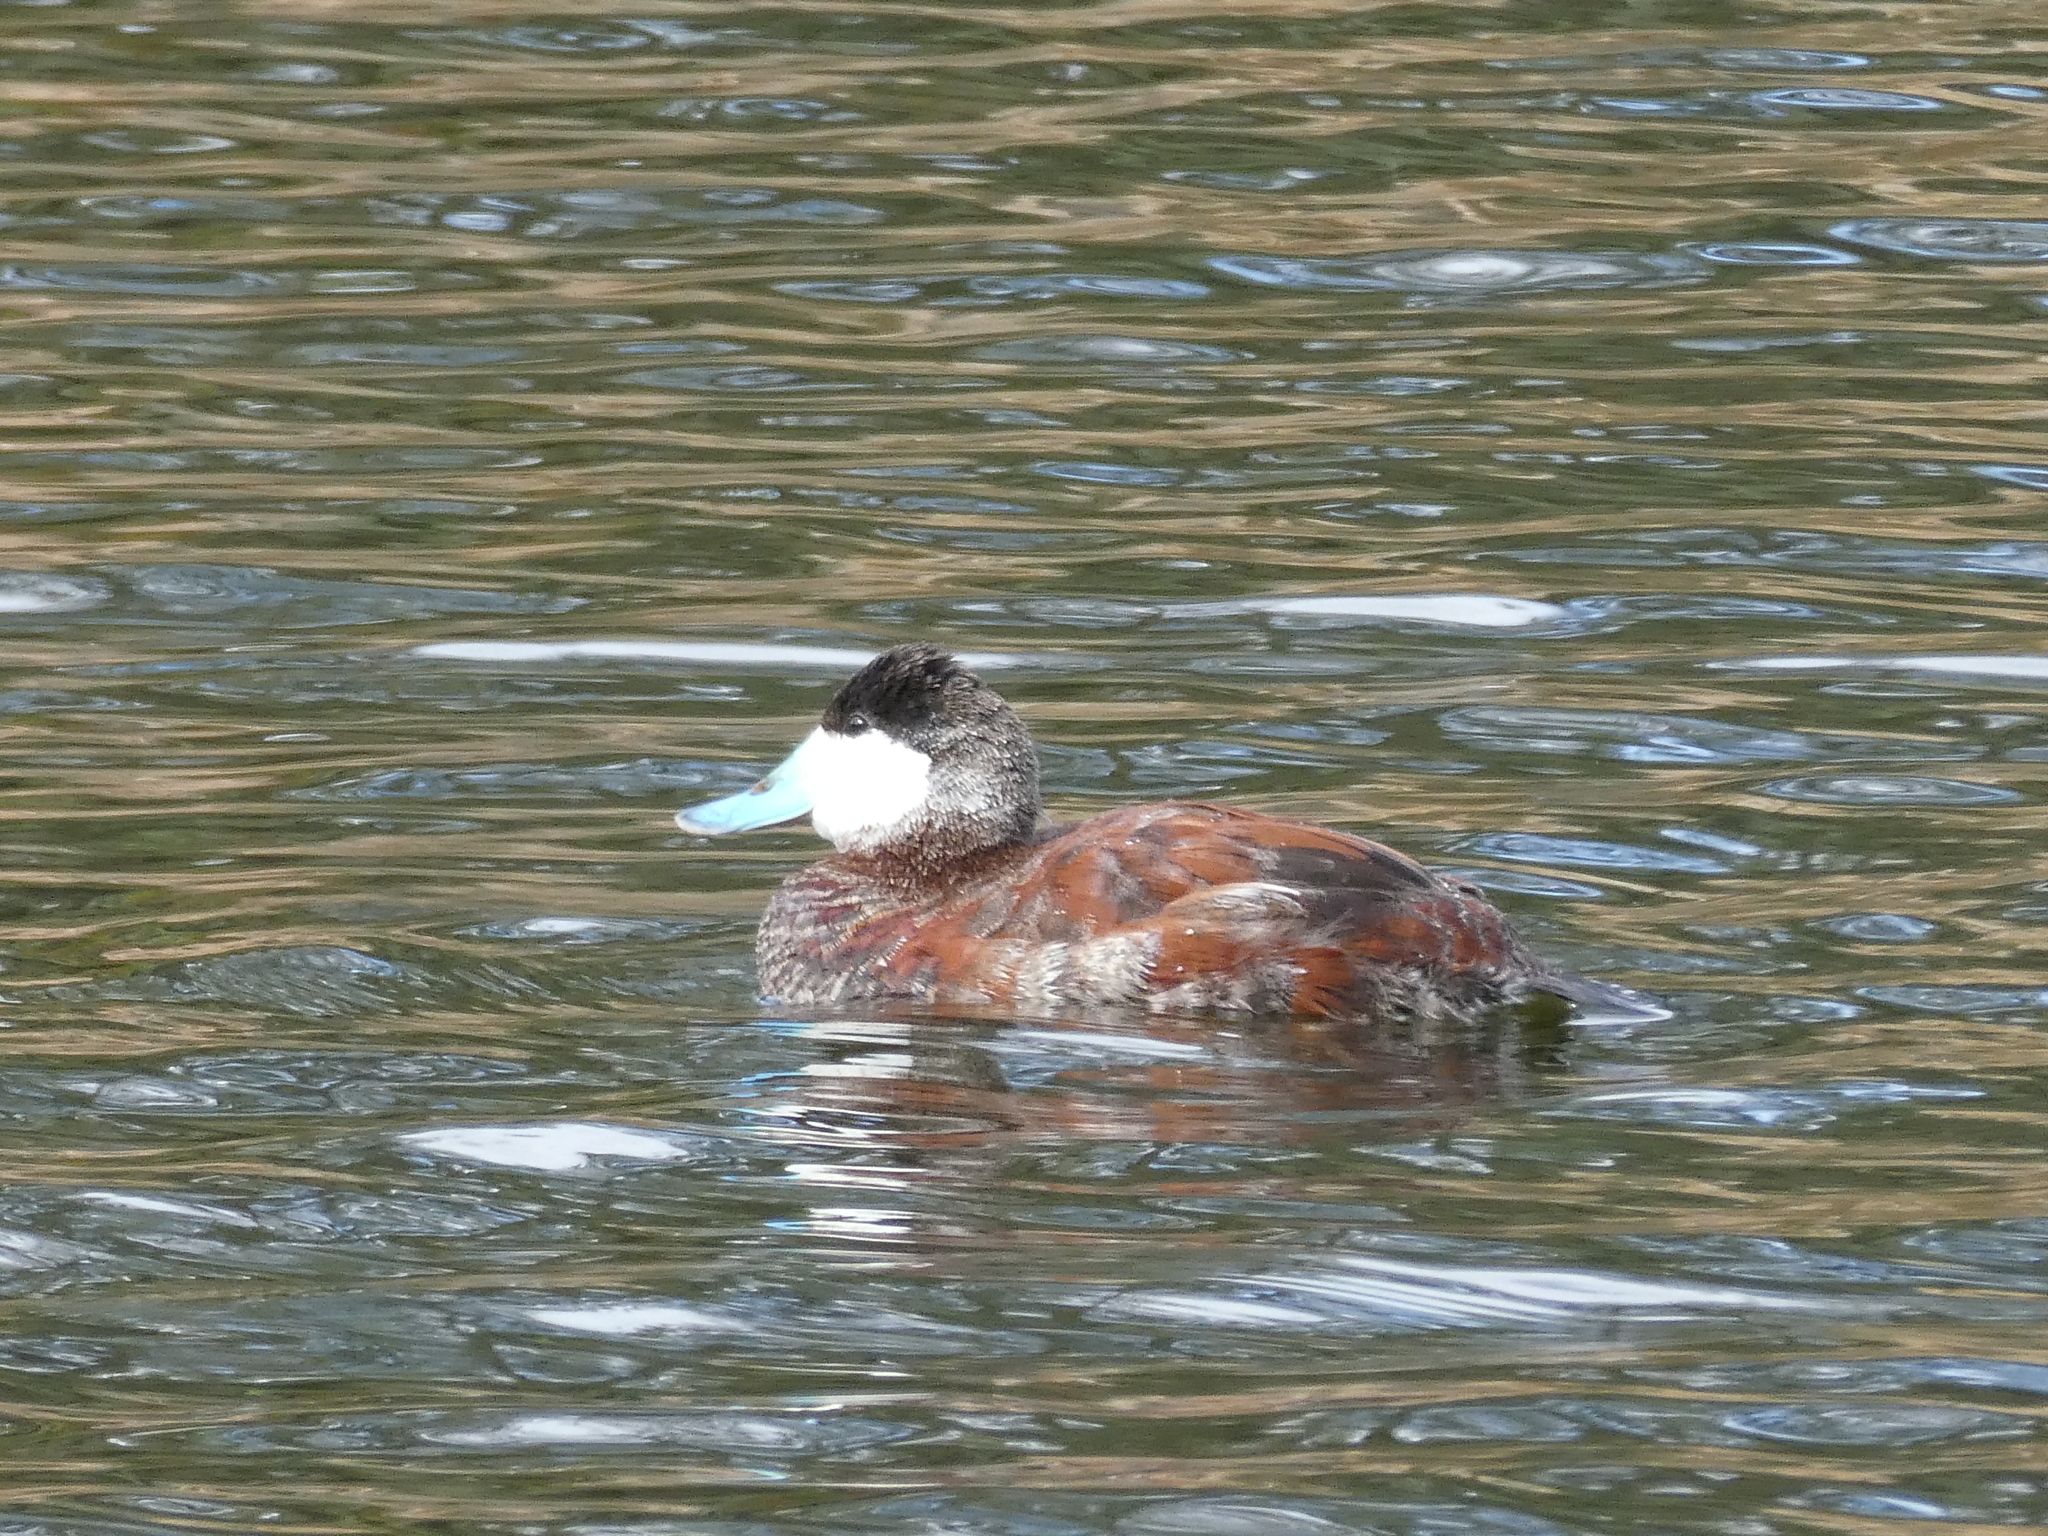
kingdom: Animalia
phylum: Chordata
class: Aves
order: Anseriformes
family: Anatidae
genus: Oxyura
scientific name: Oxyura jamaicensis
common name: Ruddy duck
